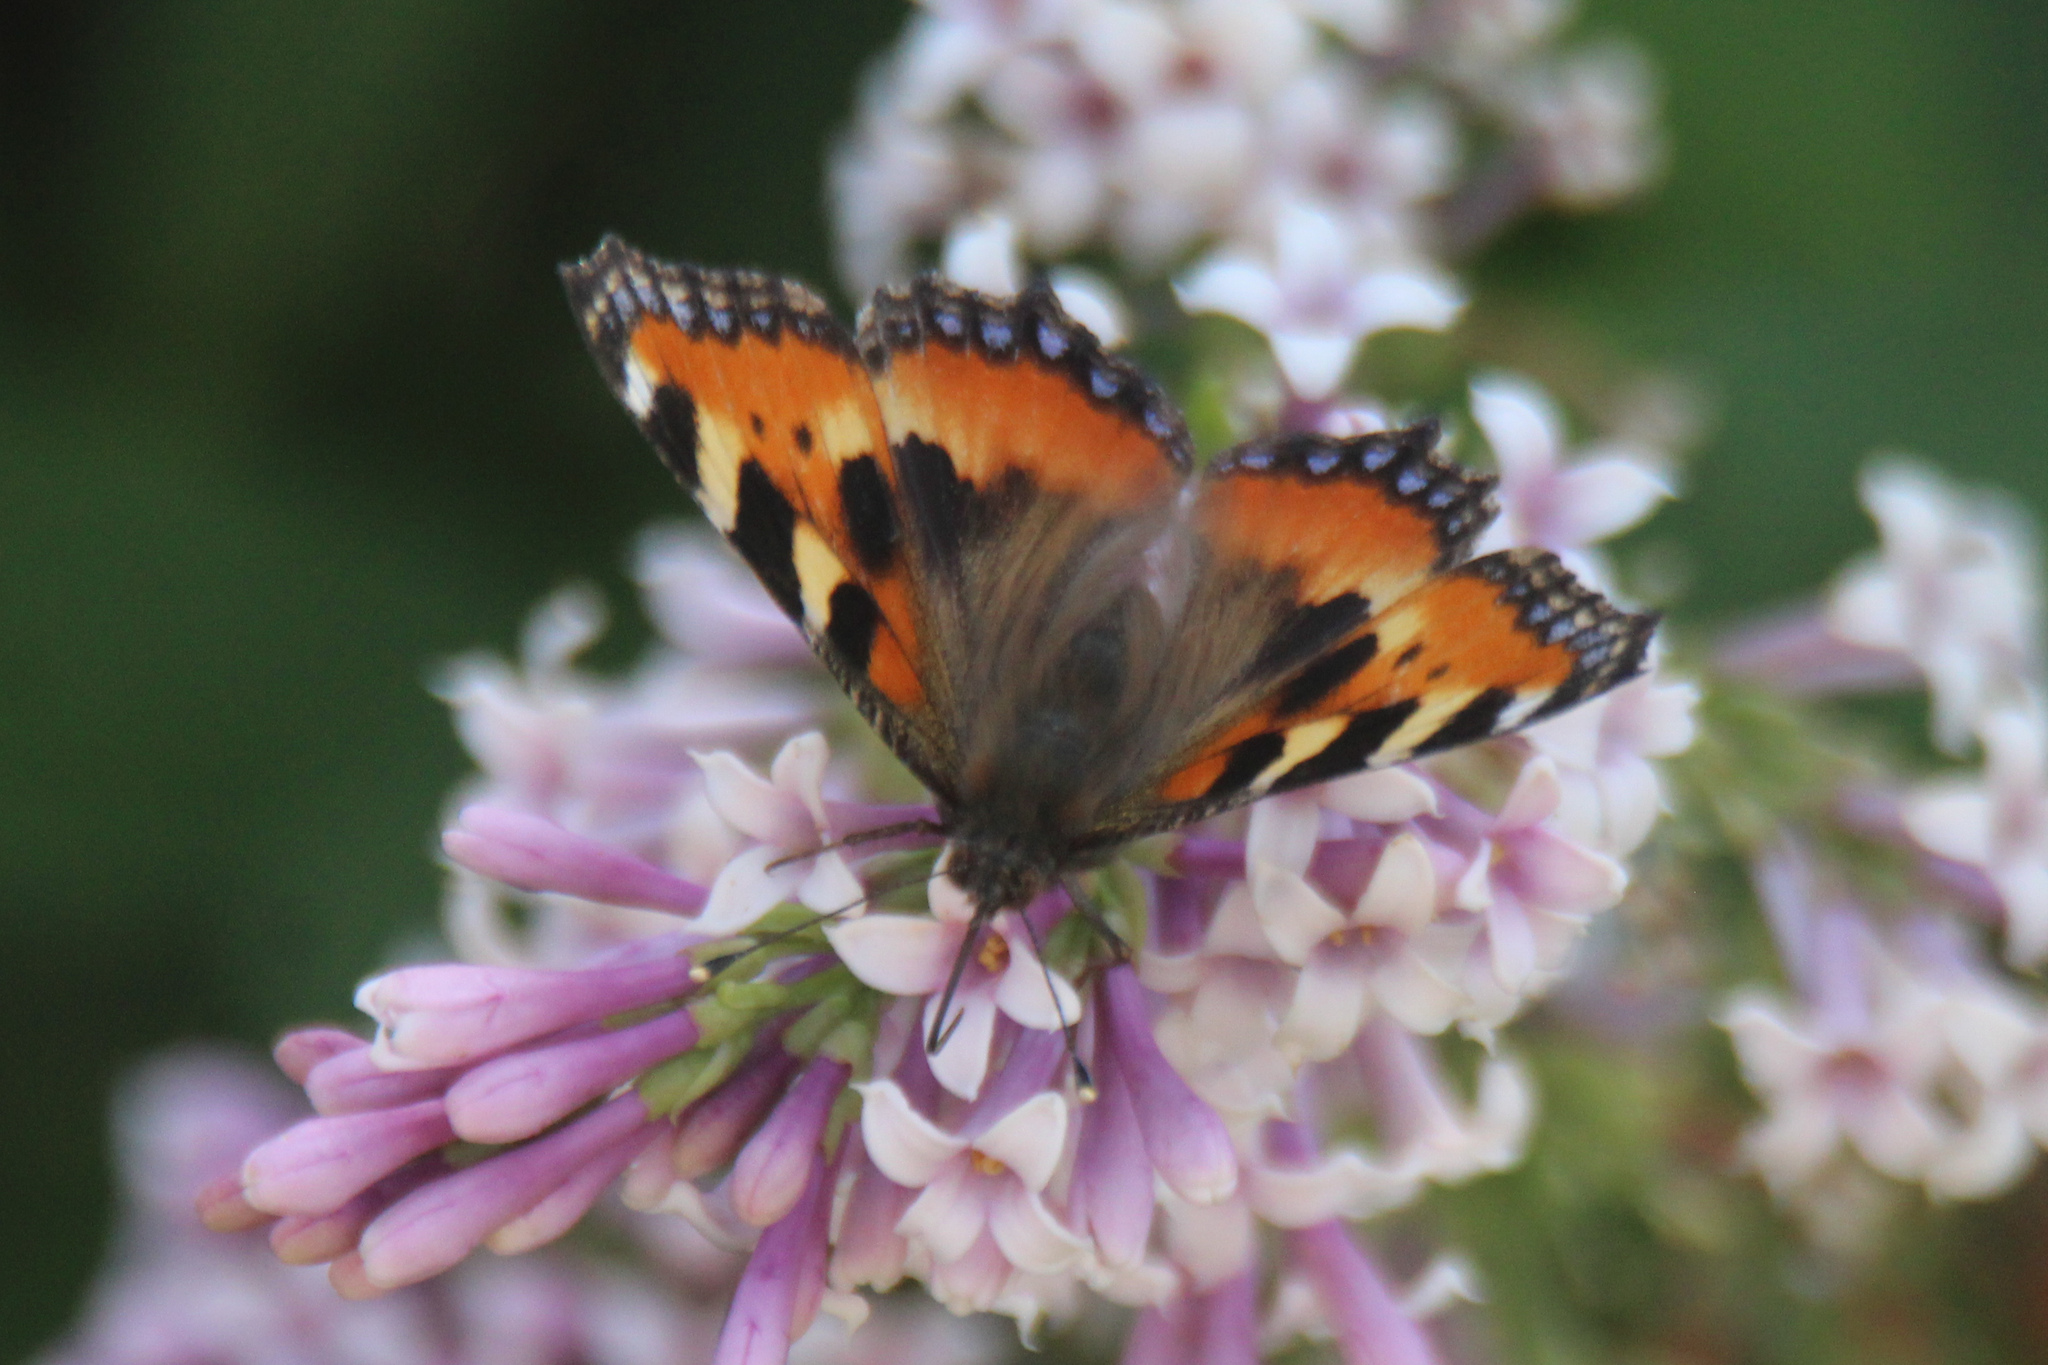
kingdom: Animalia
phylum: Arthropoda
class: Insecta
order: Lepidoptera
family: Nymphalidae
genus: Aglais
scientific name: Aglais urticae
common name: Small tortoiseshell
